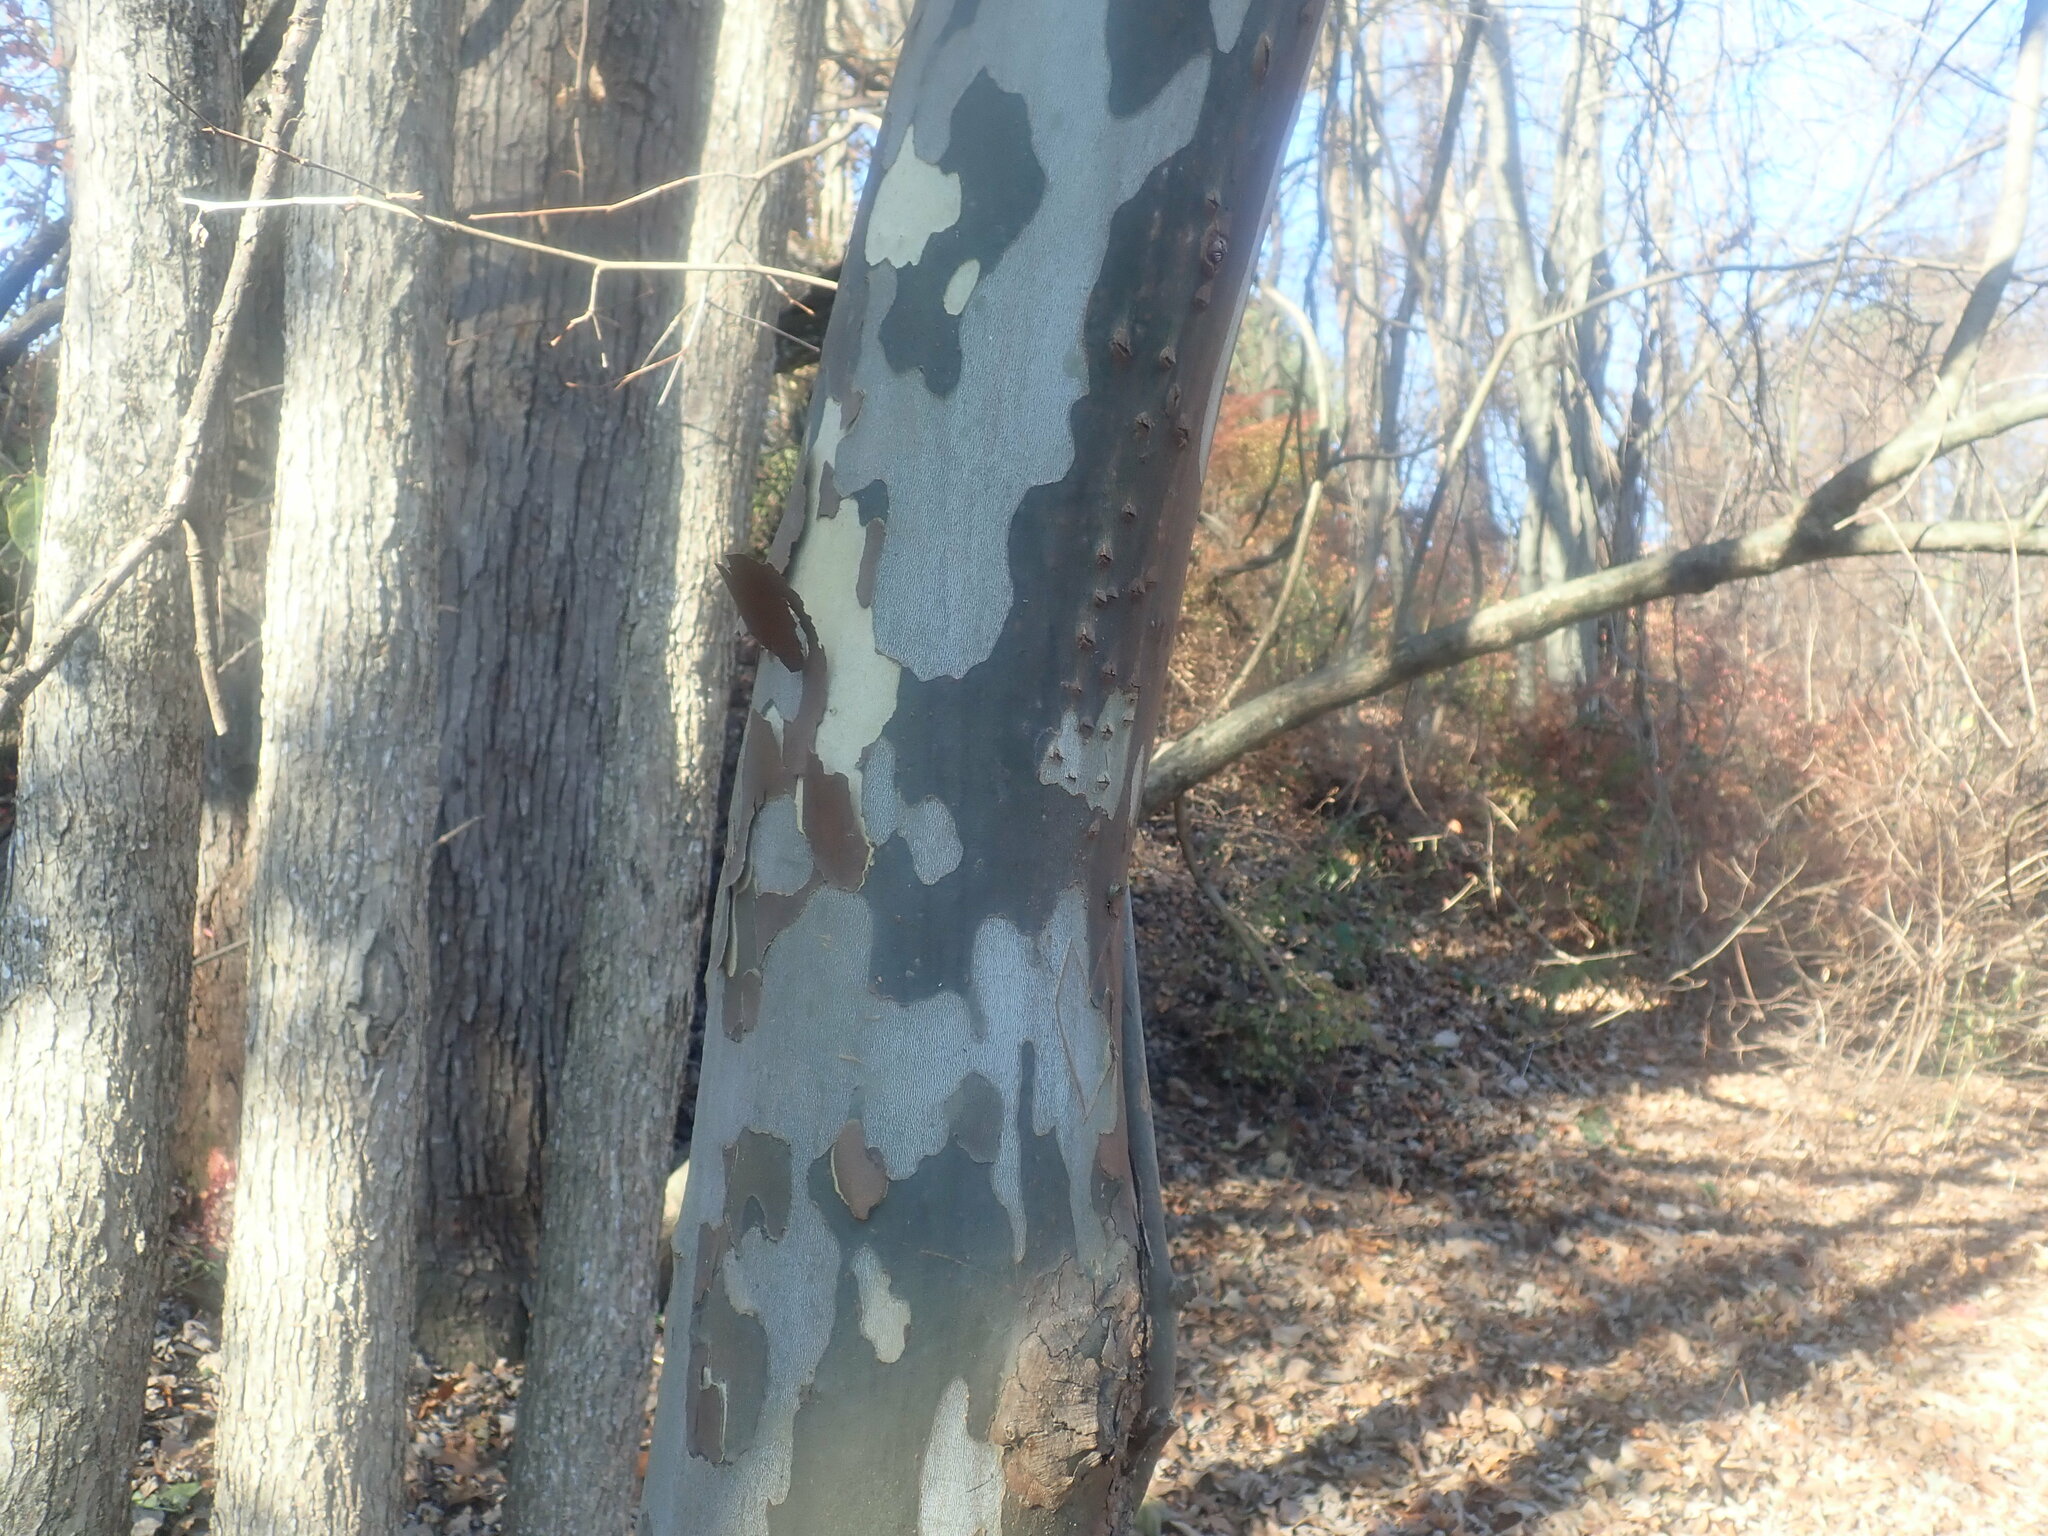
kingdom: Plantae
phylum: Tracheophyta
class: Magnoliopsida
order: Proteales
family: Platanaceae
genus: Platanus
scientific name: Platanus occidentalis
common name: American sycamore
